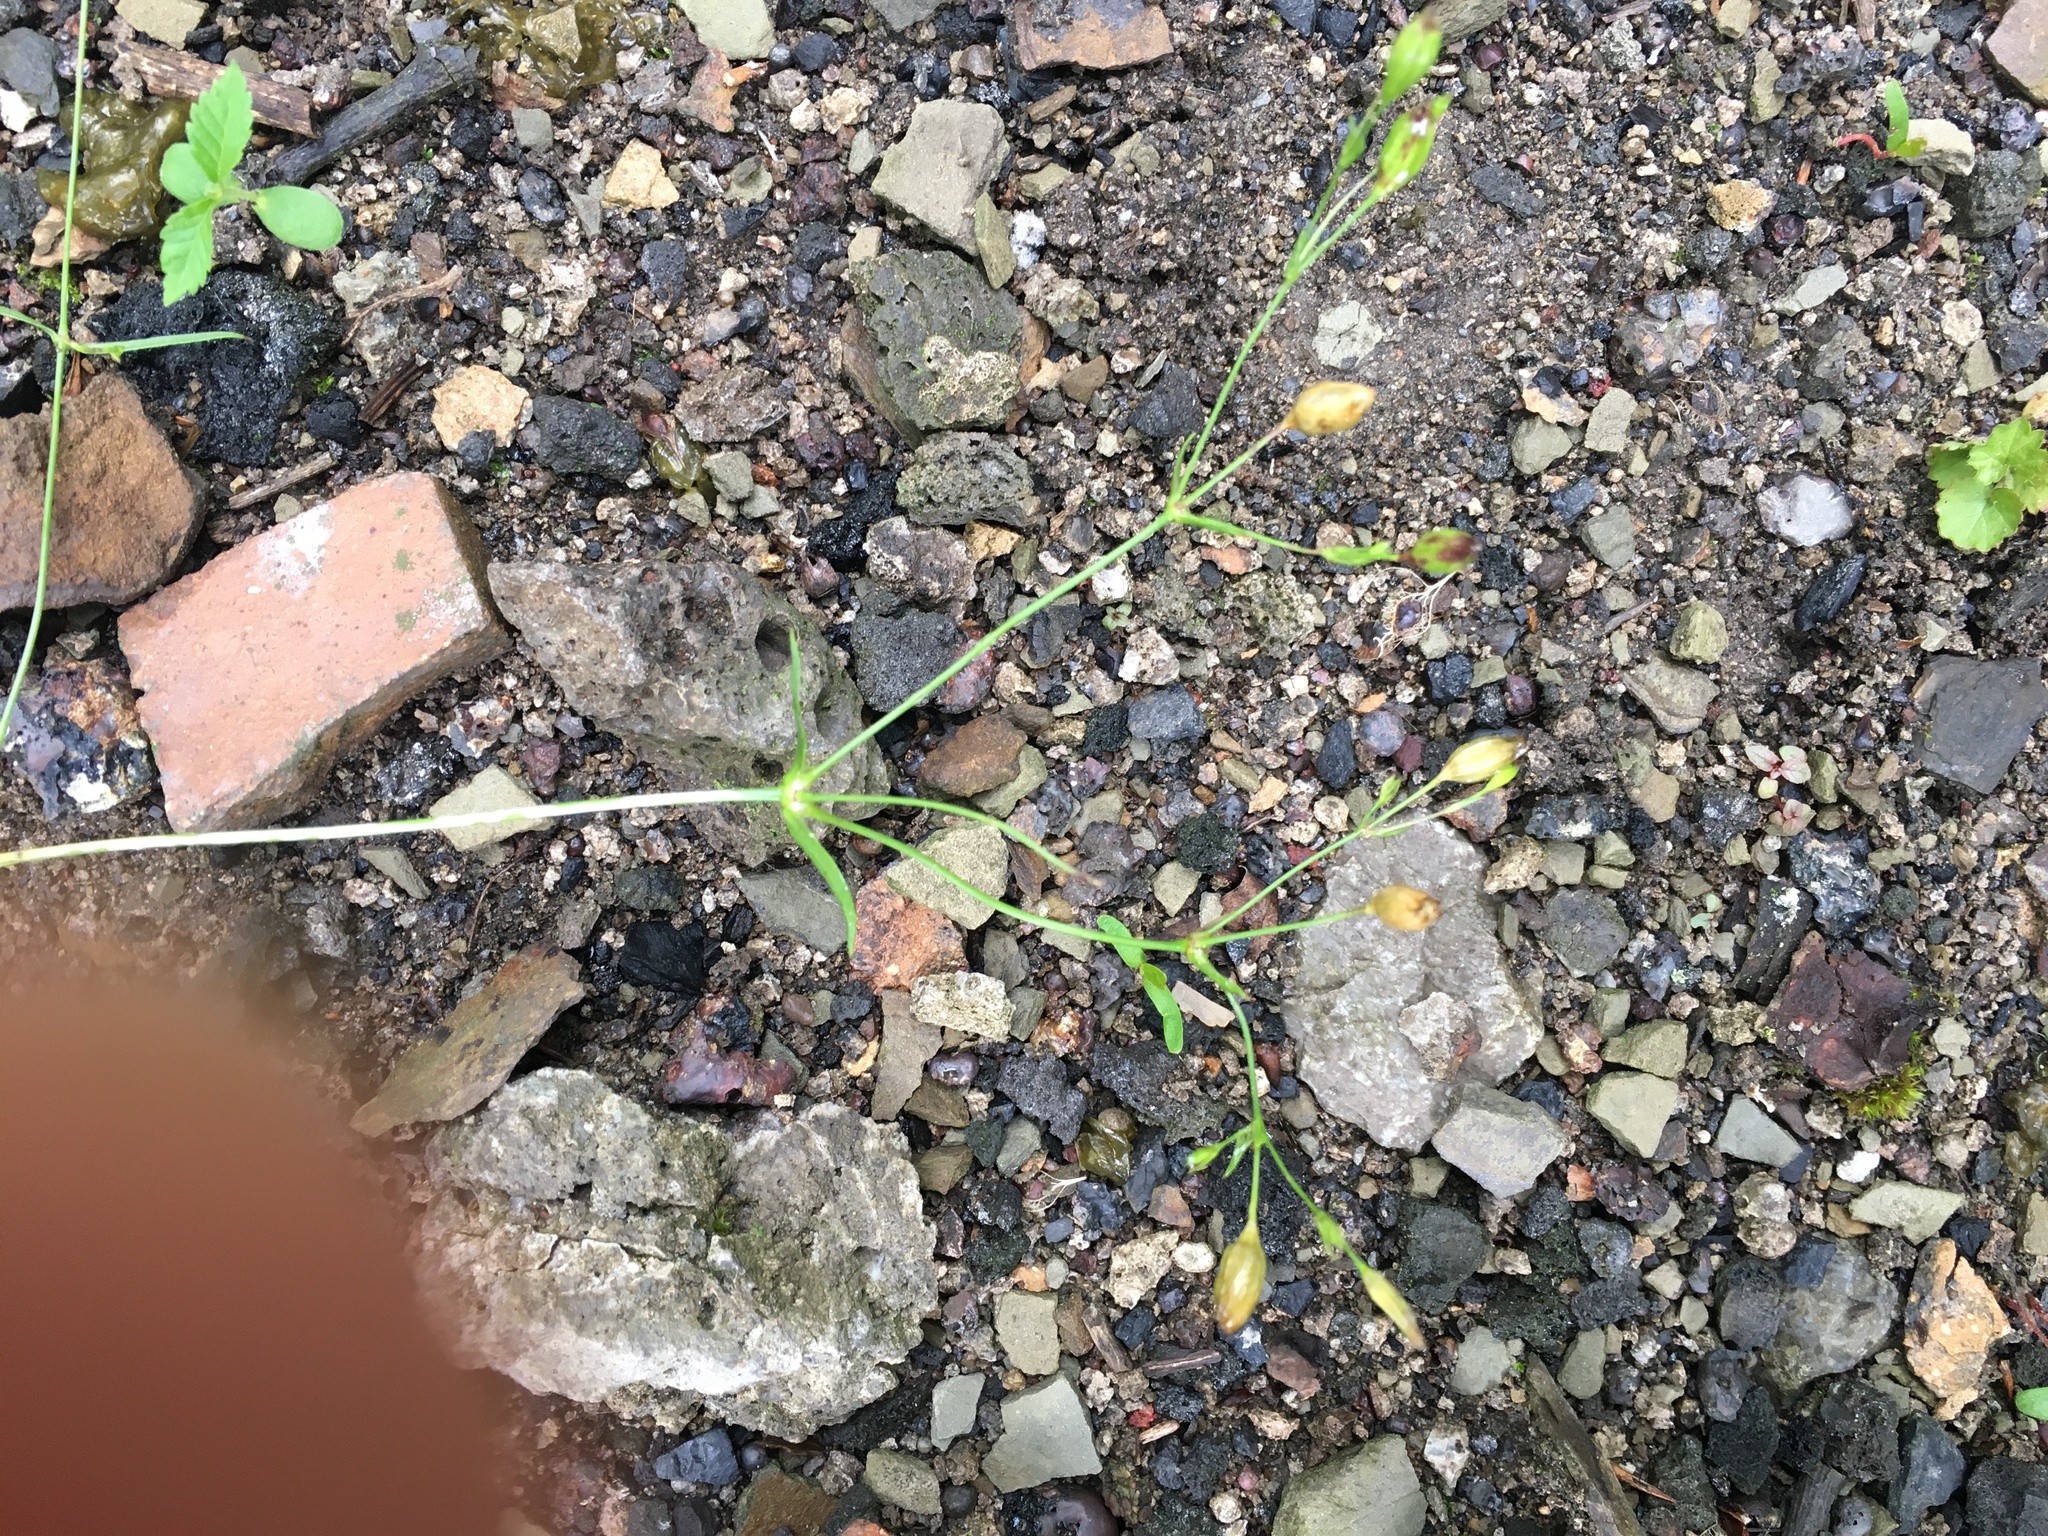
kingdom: Plantae
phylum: Tracheophyta
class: Magnoliopsida
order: Caryophyllales
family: Caryophyllaceae
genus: Silene
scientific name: Silene antirrhina
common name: Sleepy catchfly
